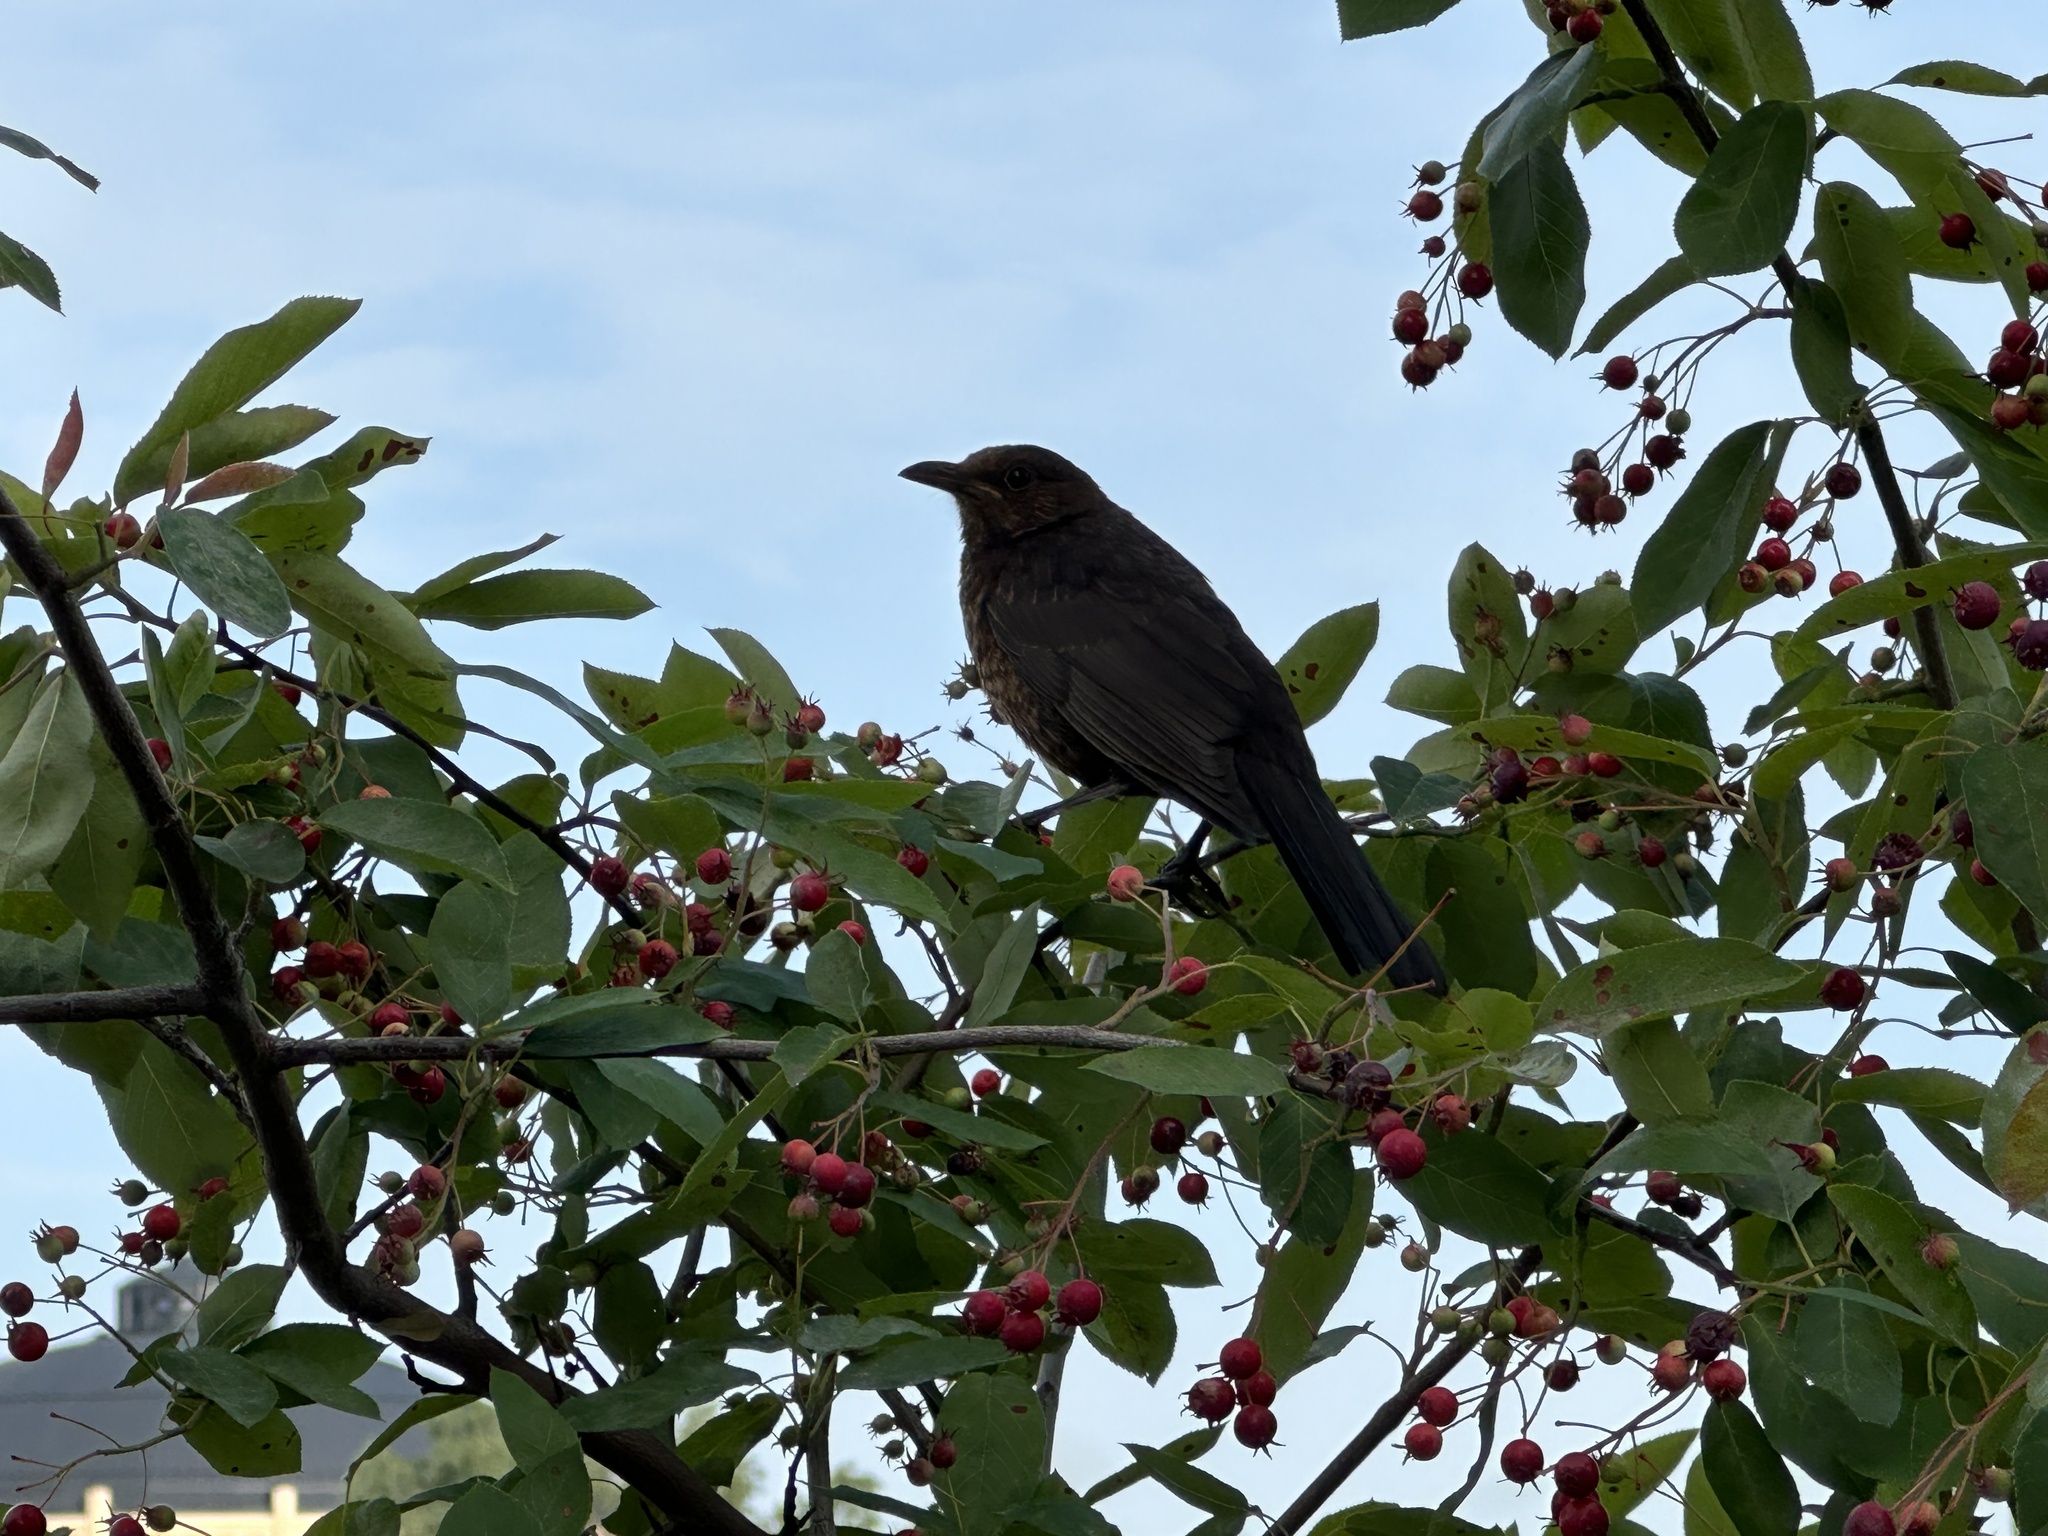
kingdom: Animalia
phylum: Chordata
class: Aves
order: Passeriformes
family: Turdidae
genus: Turdus
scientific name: Turdus merula
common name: Common blackbird
